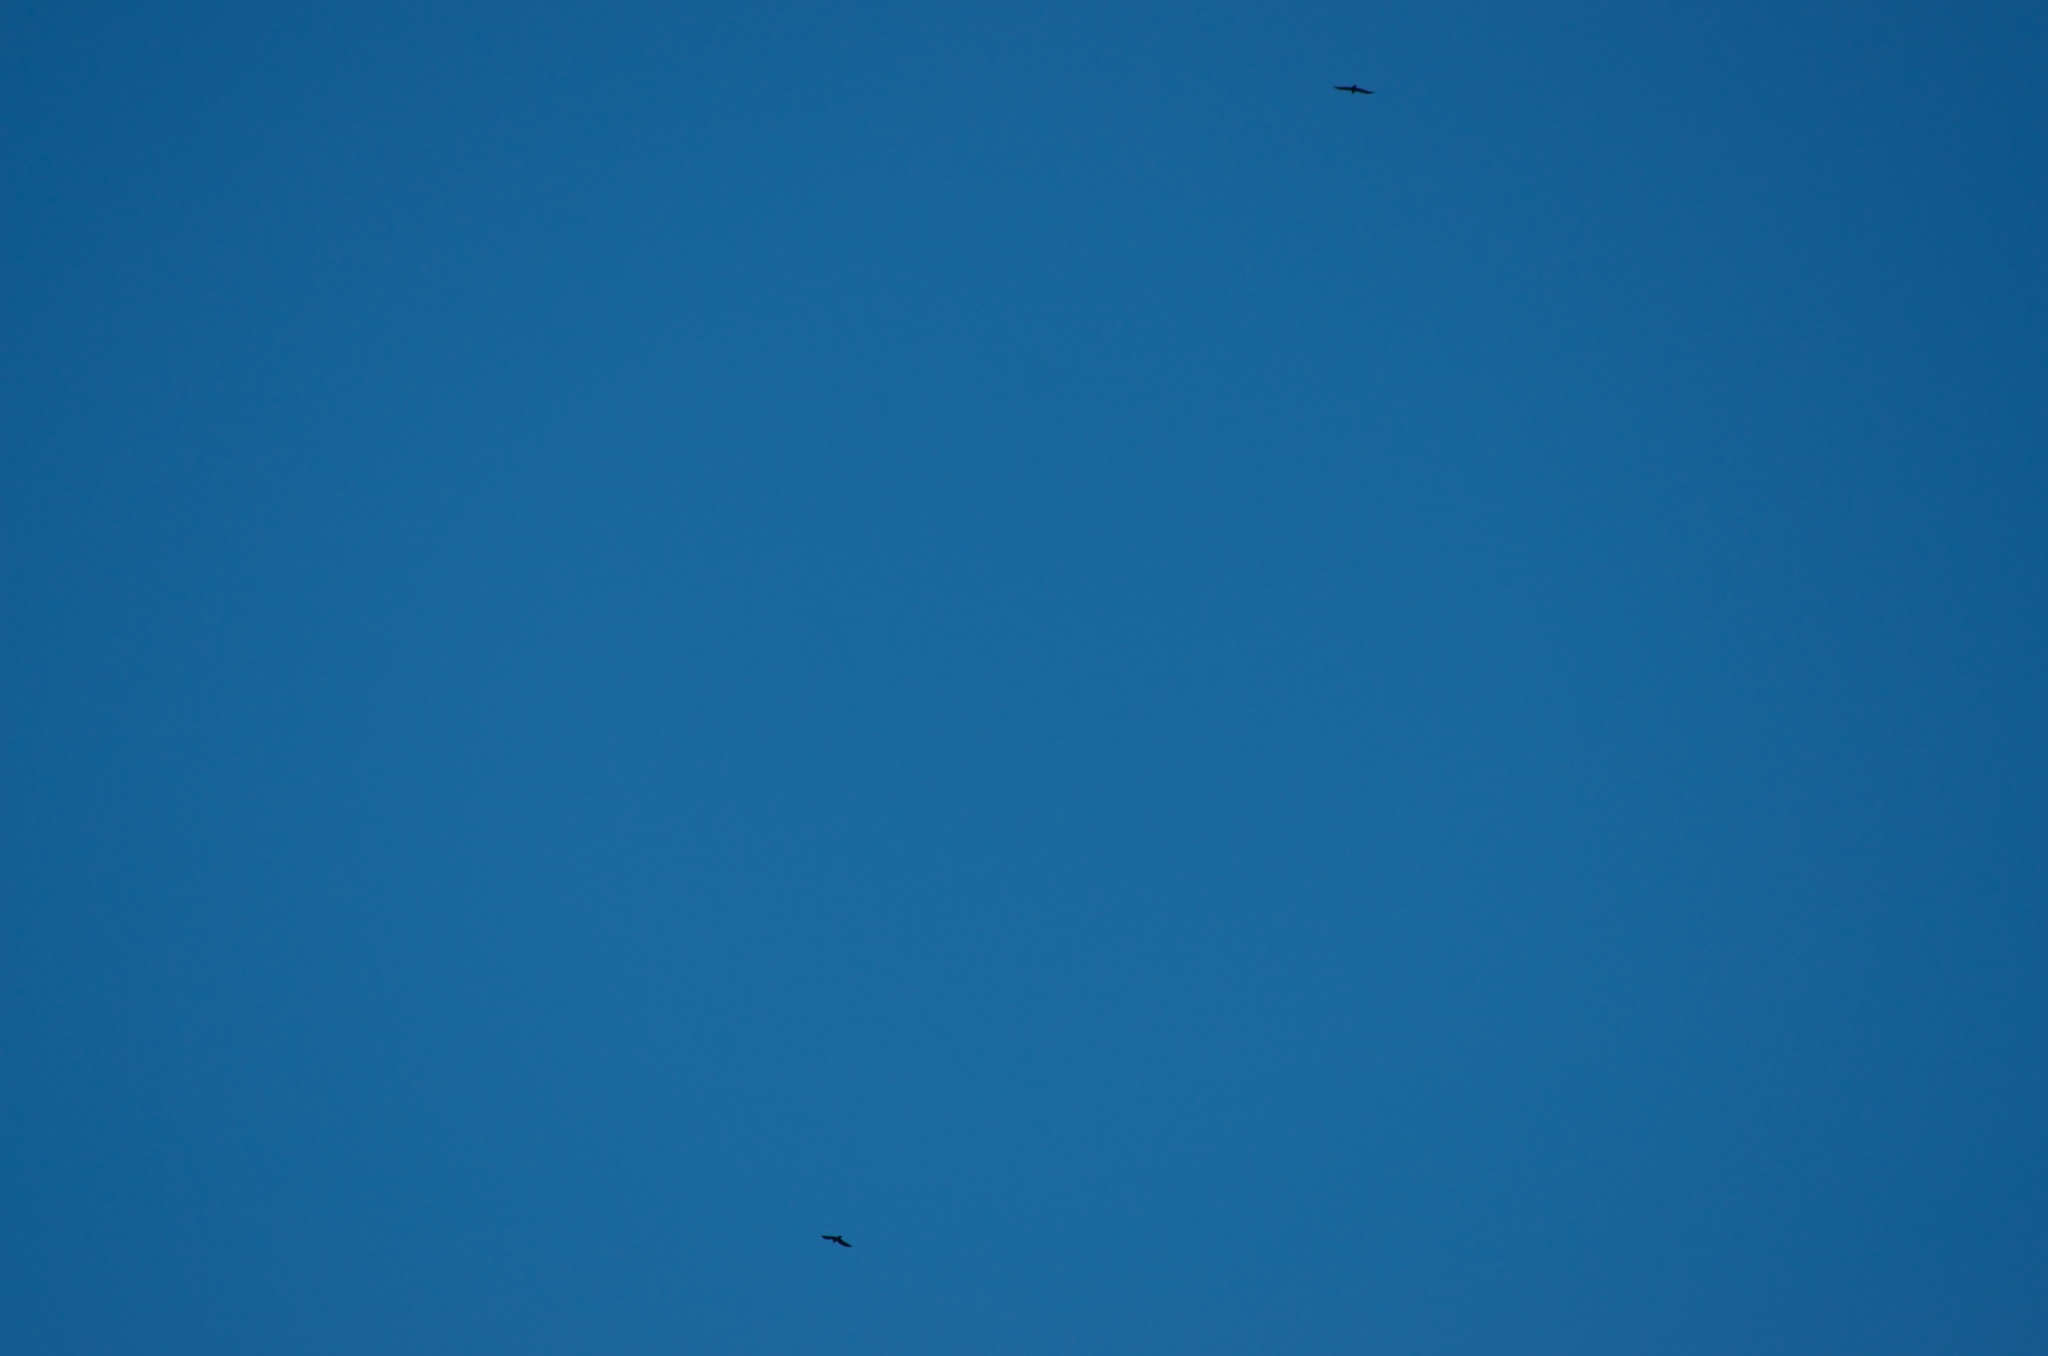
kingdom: Animalia
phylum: Chordata
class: Aves
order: Passeriformes
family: Corvidae
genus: Corvus
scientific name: Corvus corax
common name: Common raven
